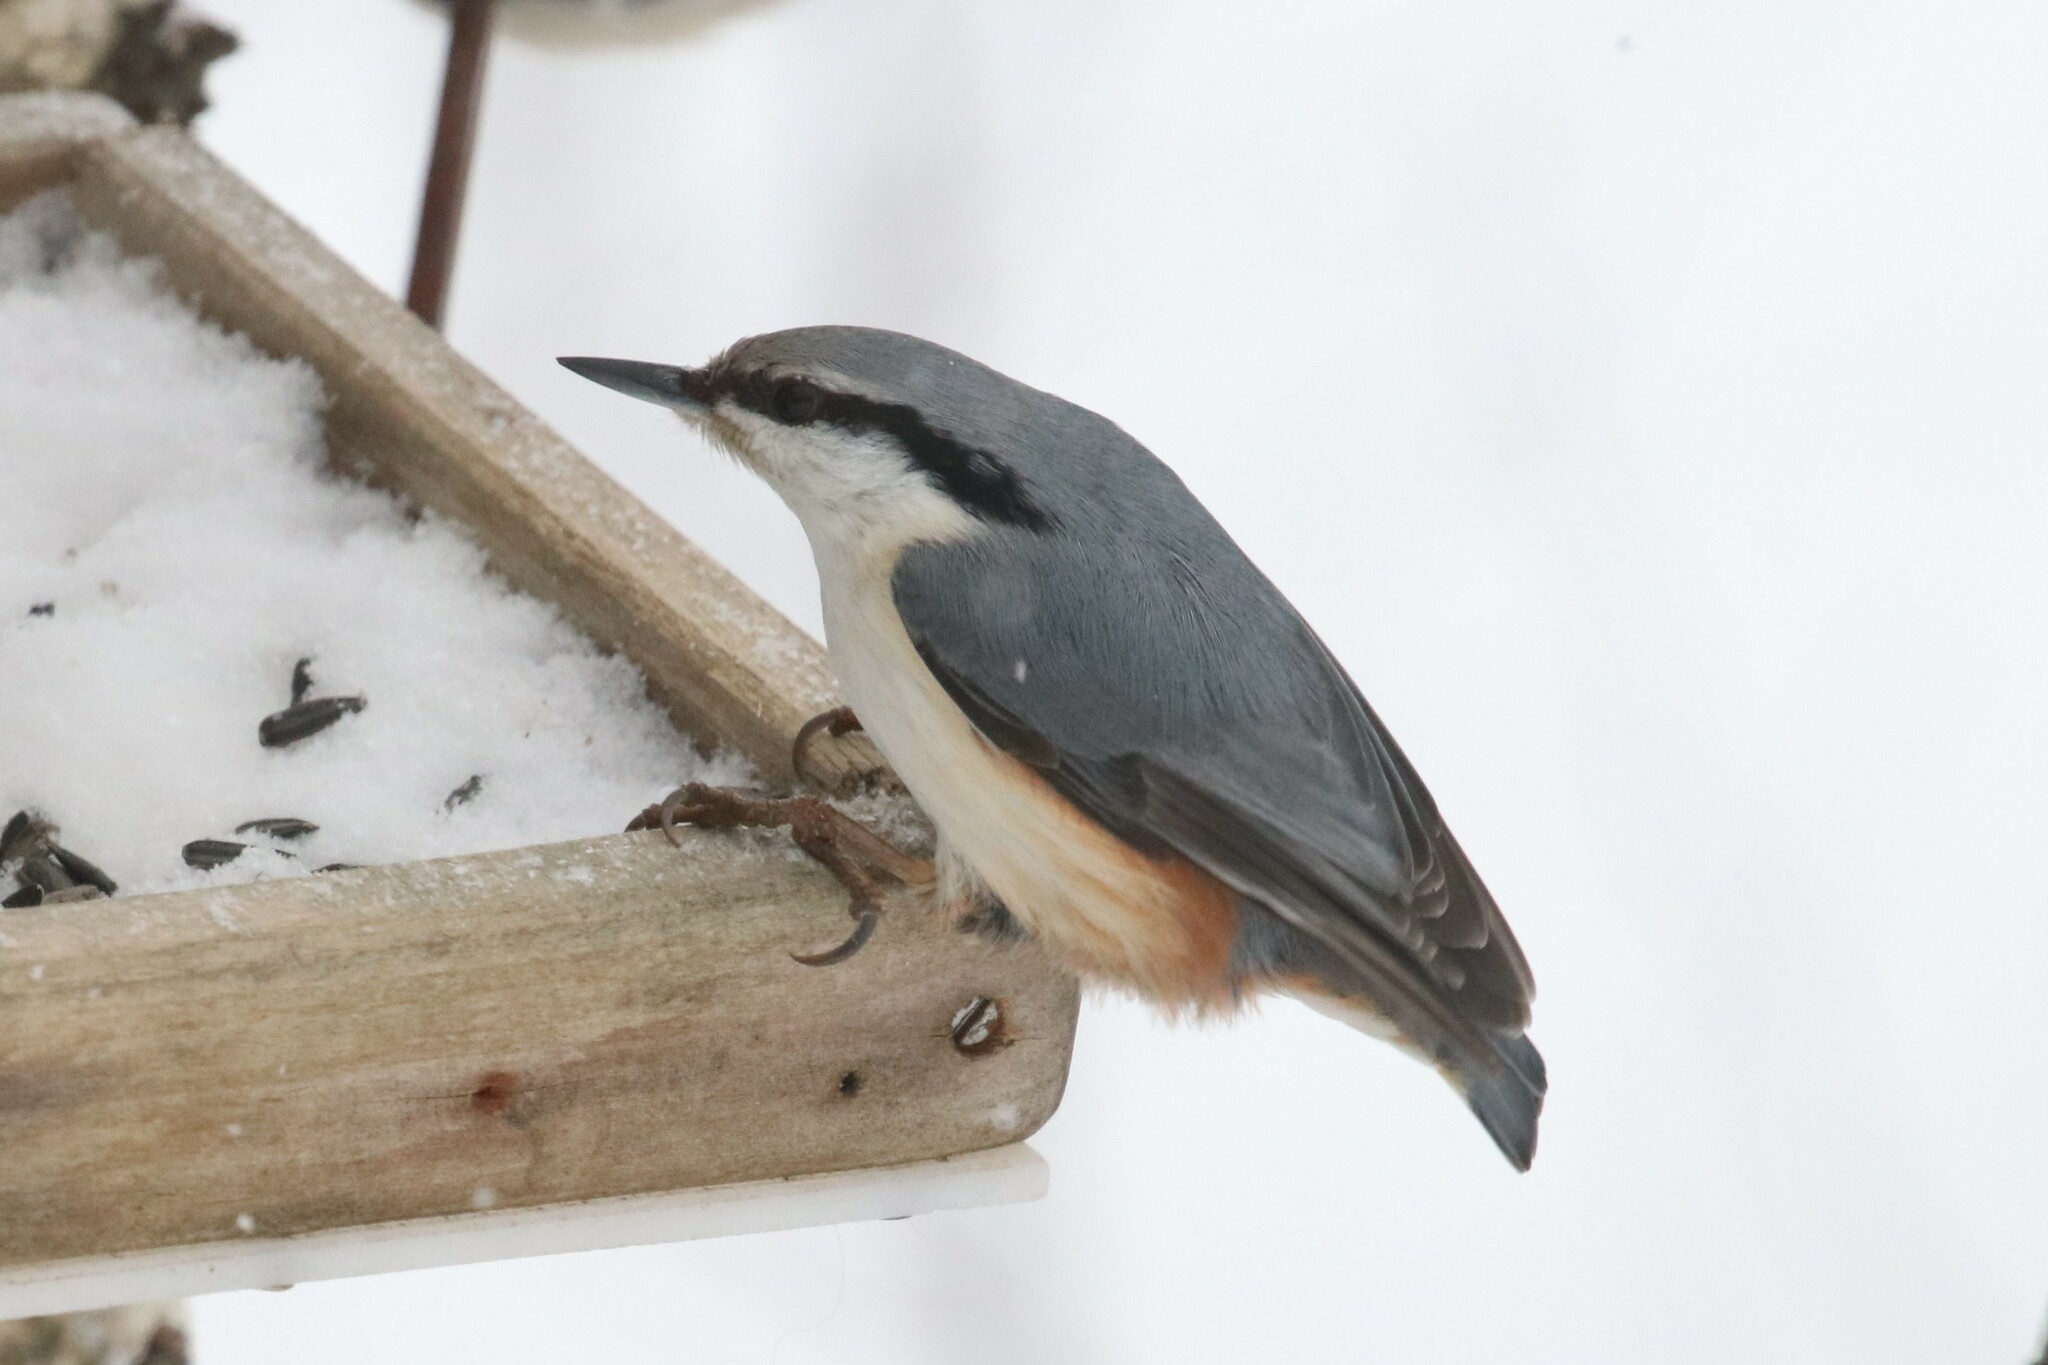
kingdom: Animalia
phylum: Chordata
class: Aves
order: Passeriformes
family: Sittidae
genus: Sitta
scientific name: Sitta europaea
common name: Eurasian nuthatch
